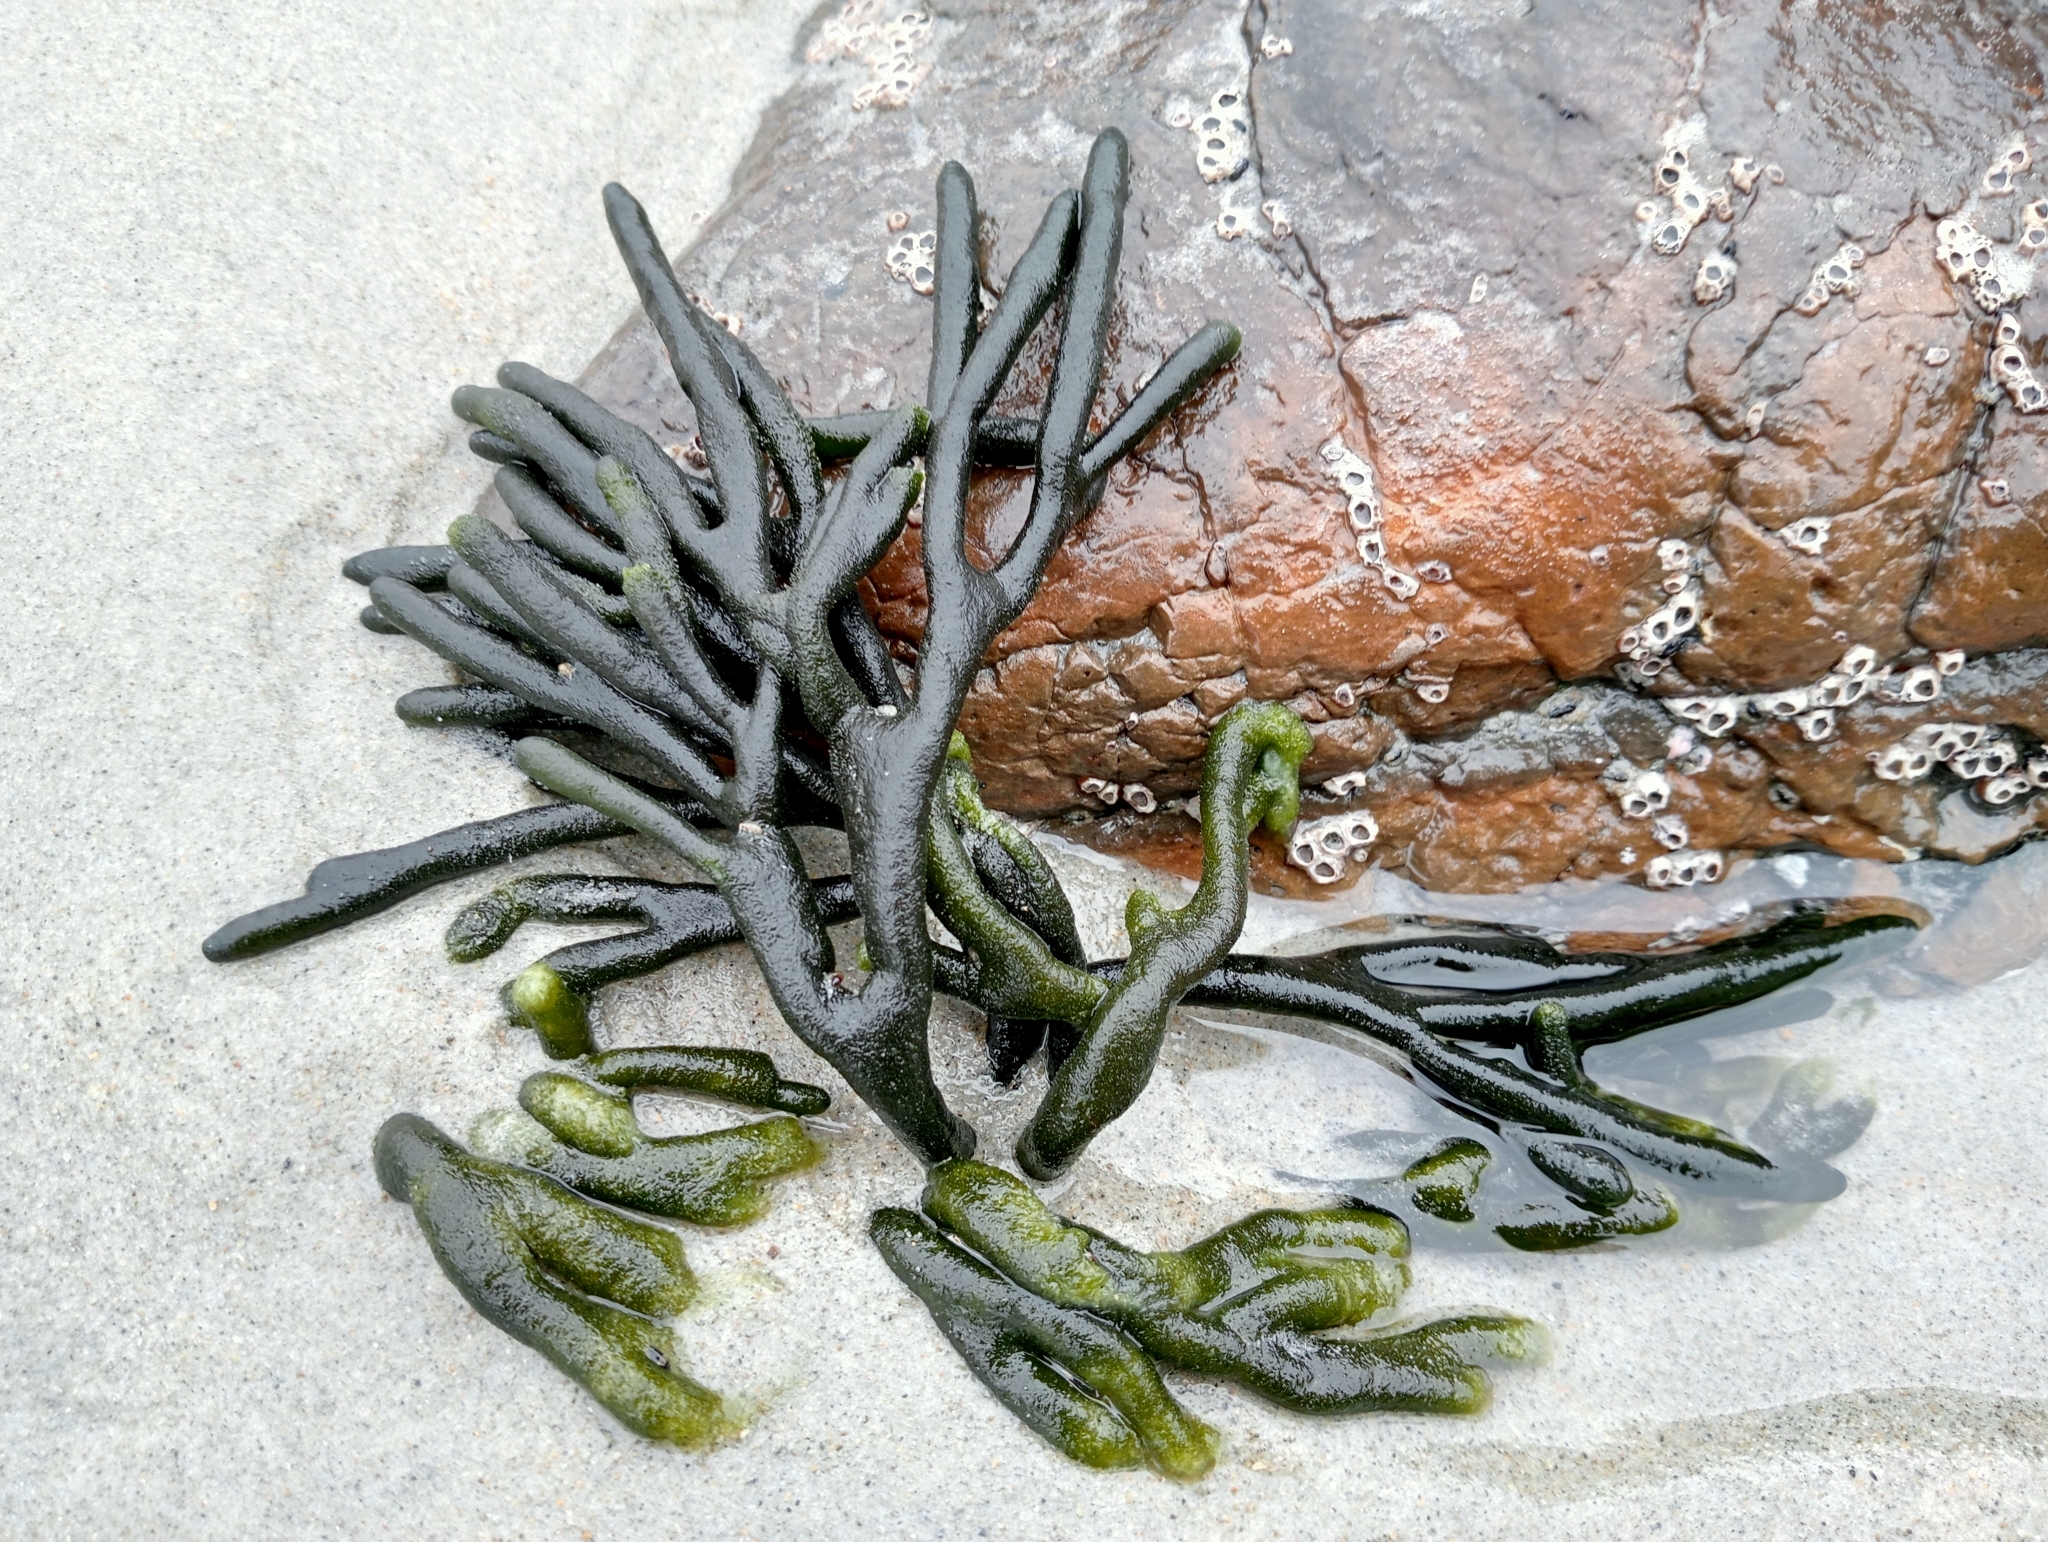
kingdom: Plantae
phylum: Chlorophyta
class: Ulvophyceae
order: Bryopsidales
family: Codiaceae
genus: Codium
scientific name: Codium fragile
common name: Dead man's fingers
